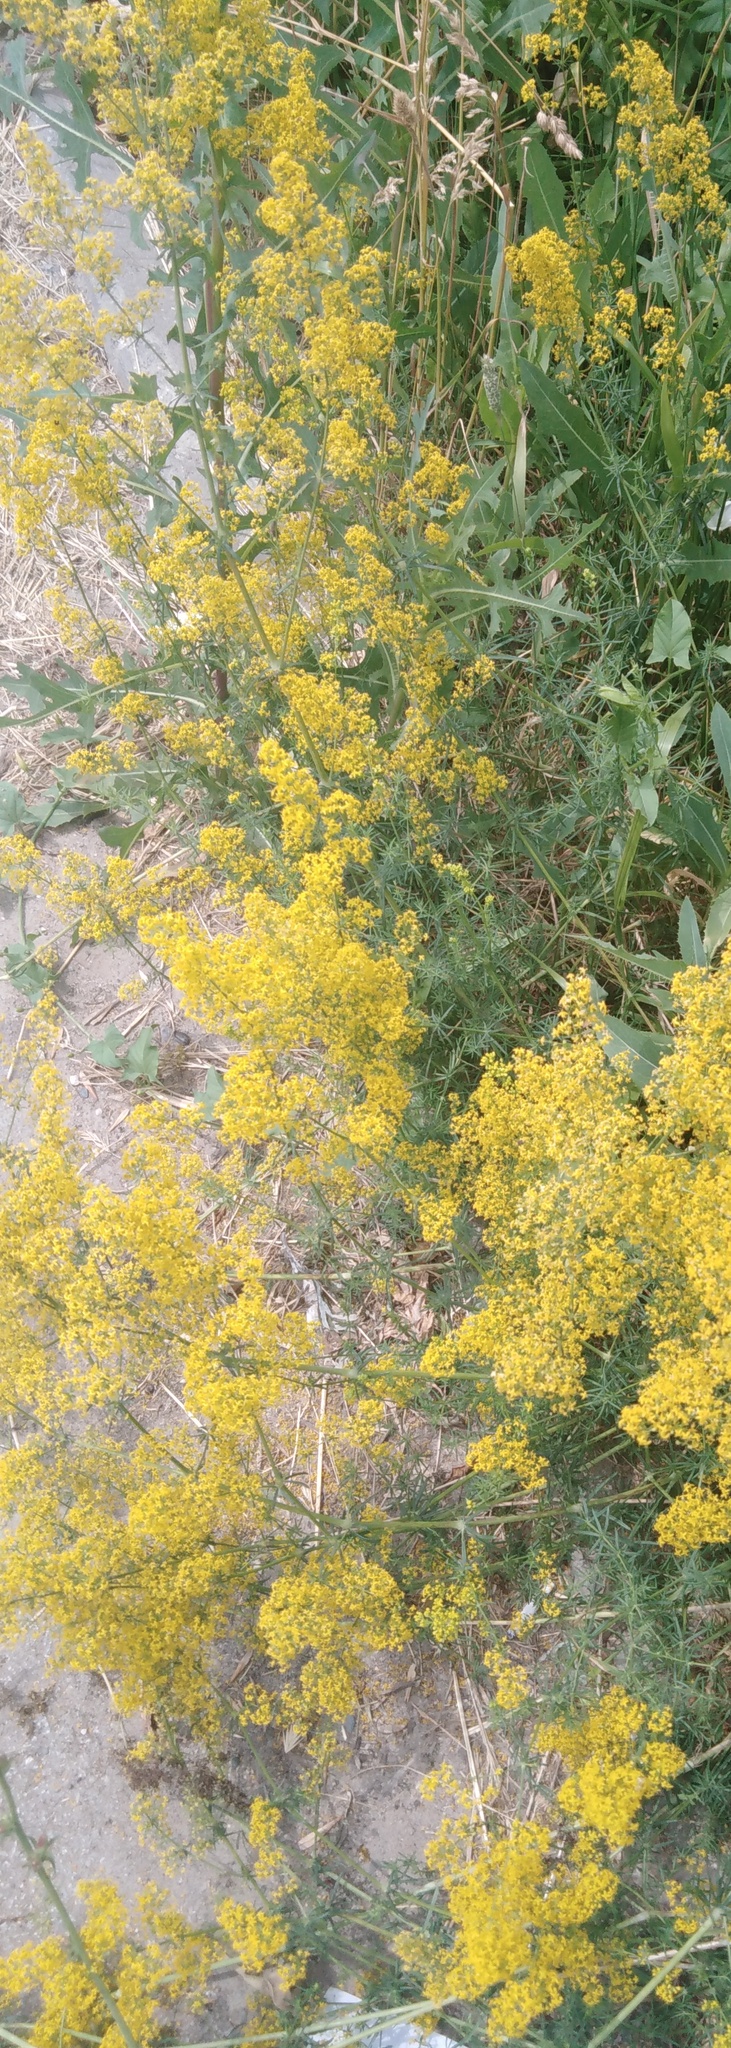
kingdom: Plantae
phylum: Tracheophyta
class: Magnoliopsida
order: Gentianales
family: Rubiaceae
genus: Galium
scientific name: Galium verum
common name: Lady's bedstraw
